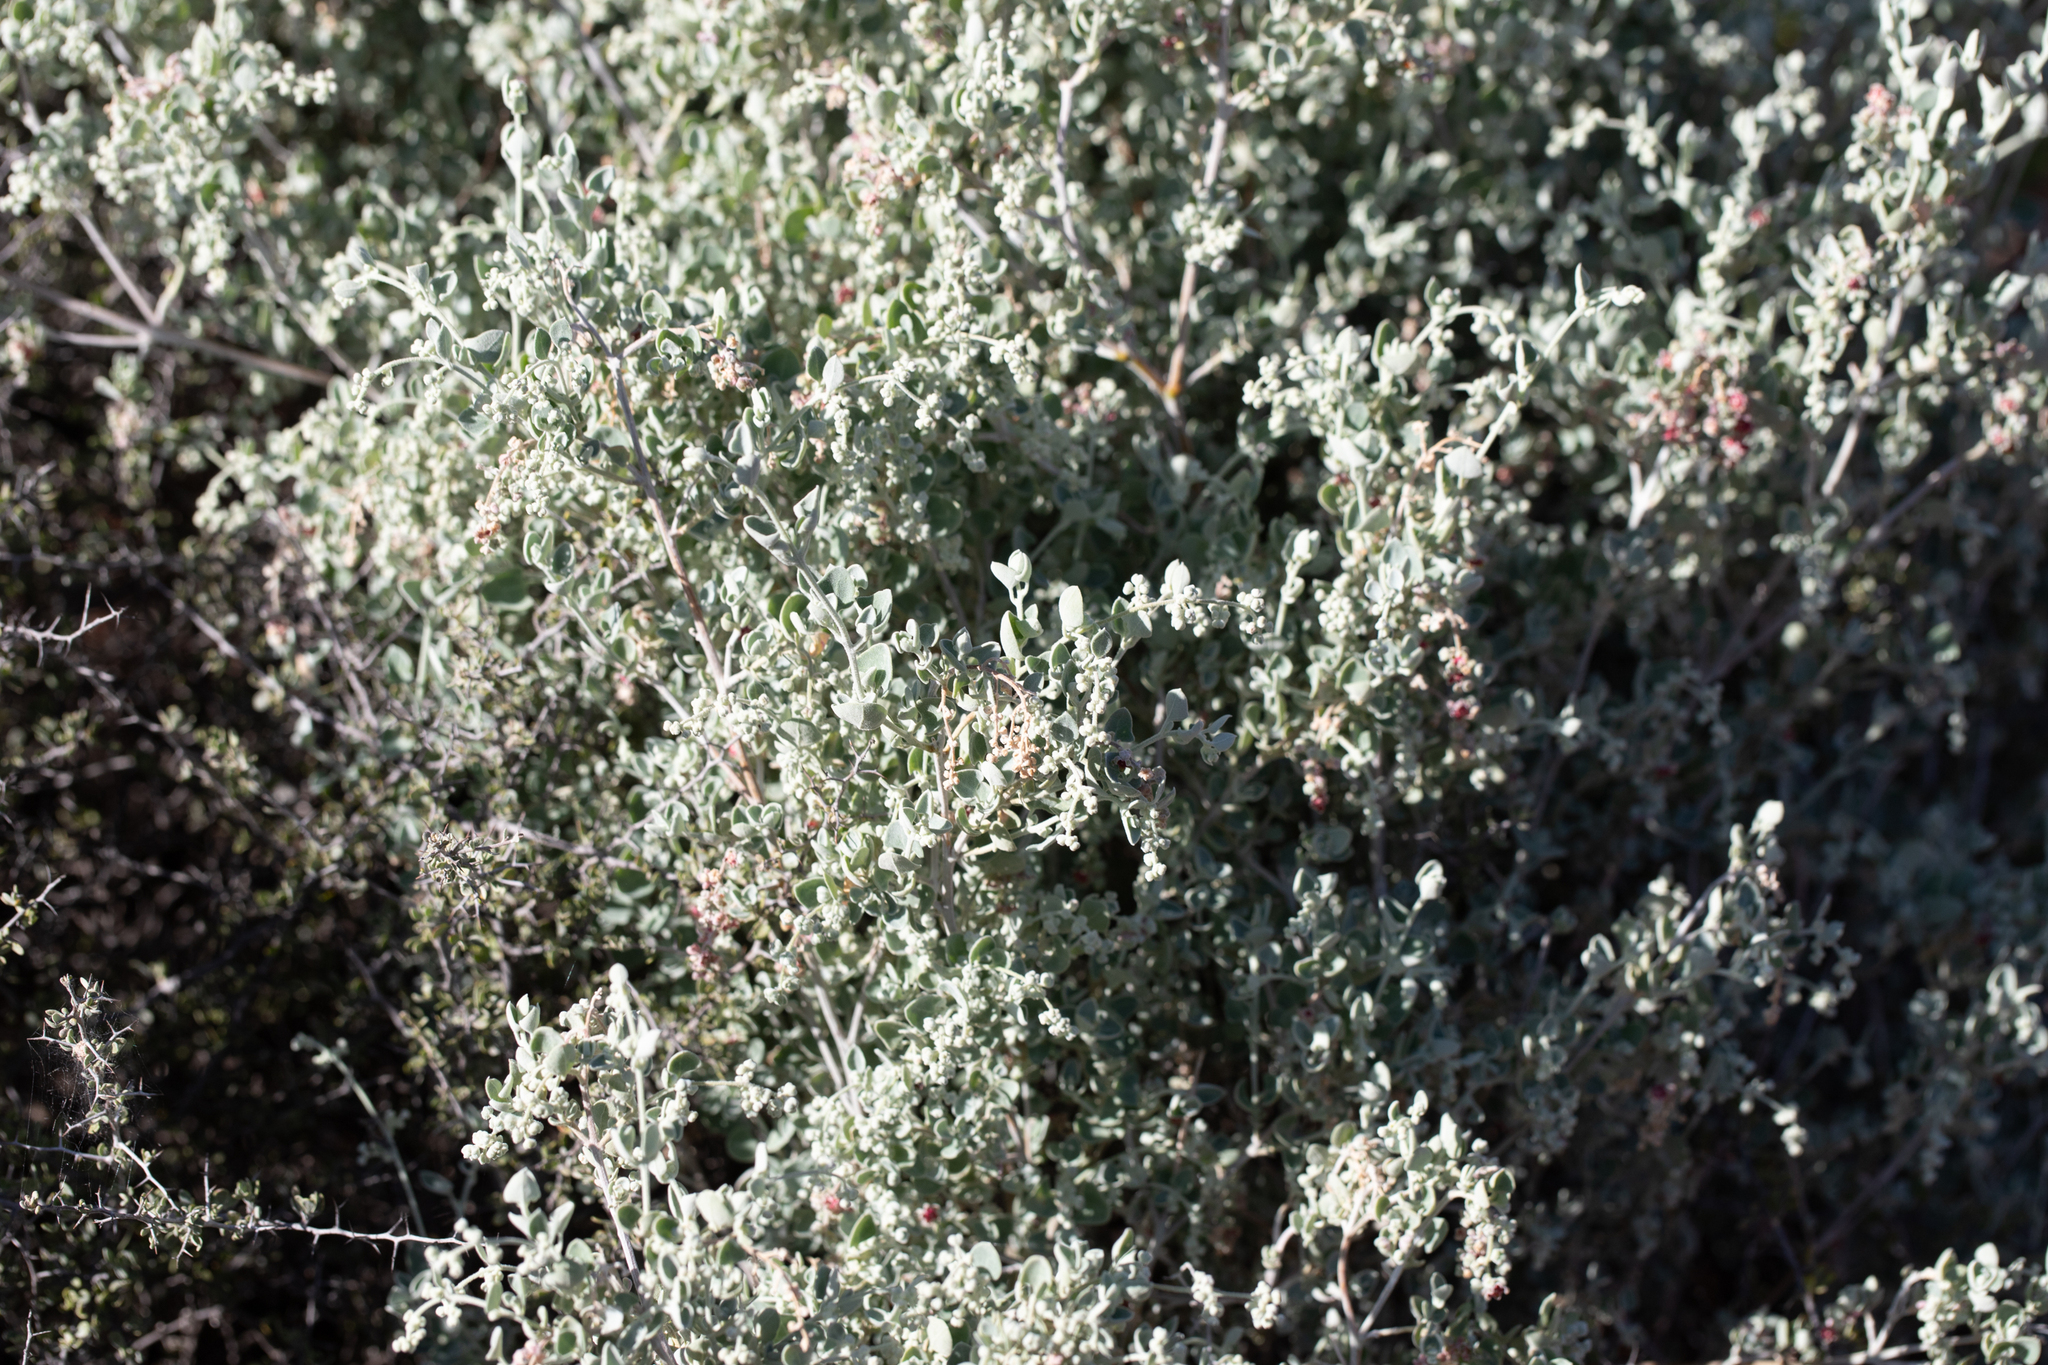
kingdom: Plantae
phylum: Tracheophyta
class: Magnoliopsida
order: Caryophyllales
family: Amaranthaceae
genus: Chenopodium
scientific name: Chenopodium curvispicatum
